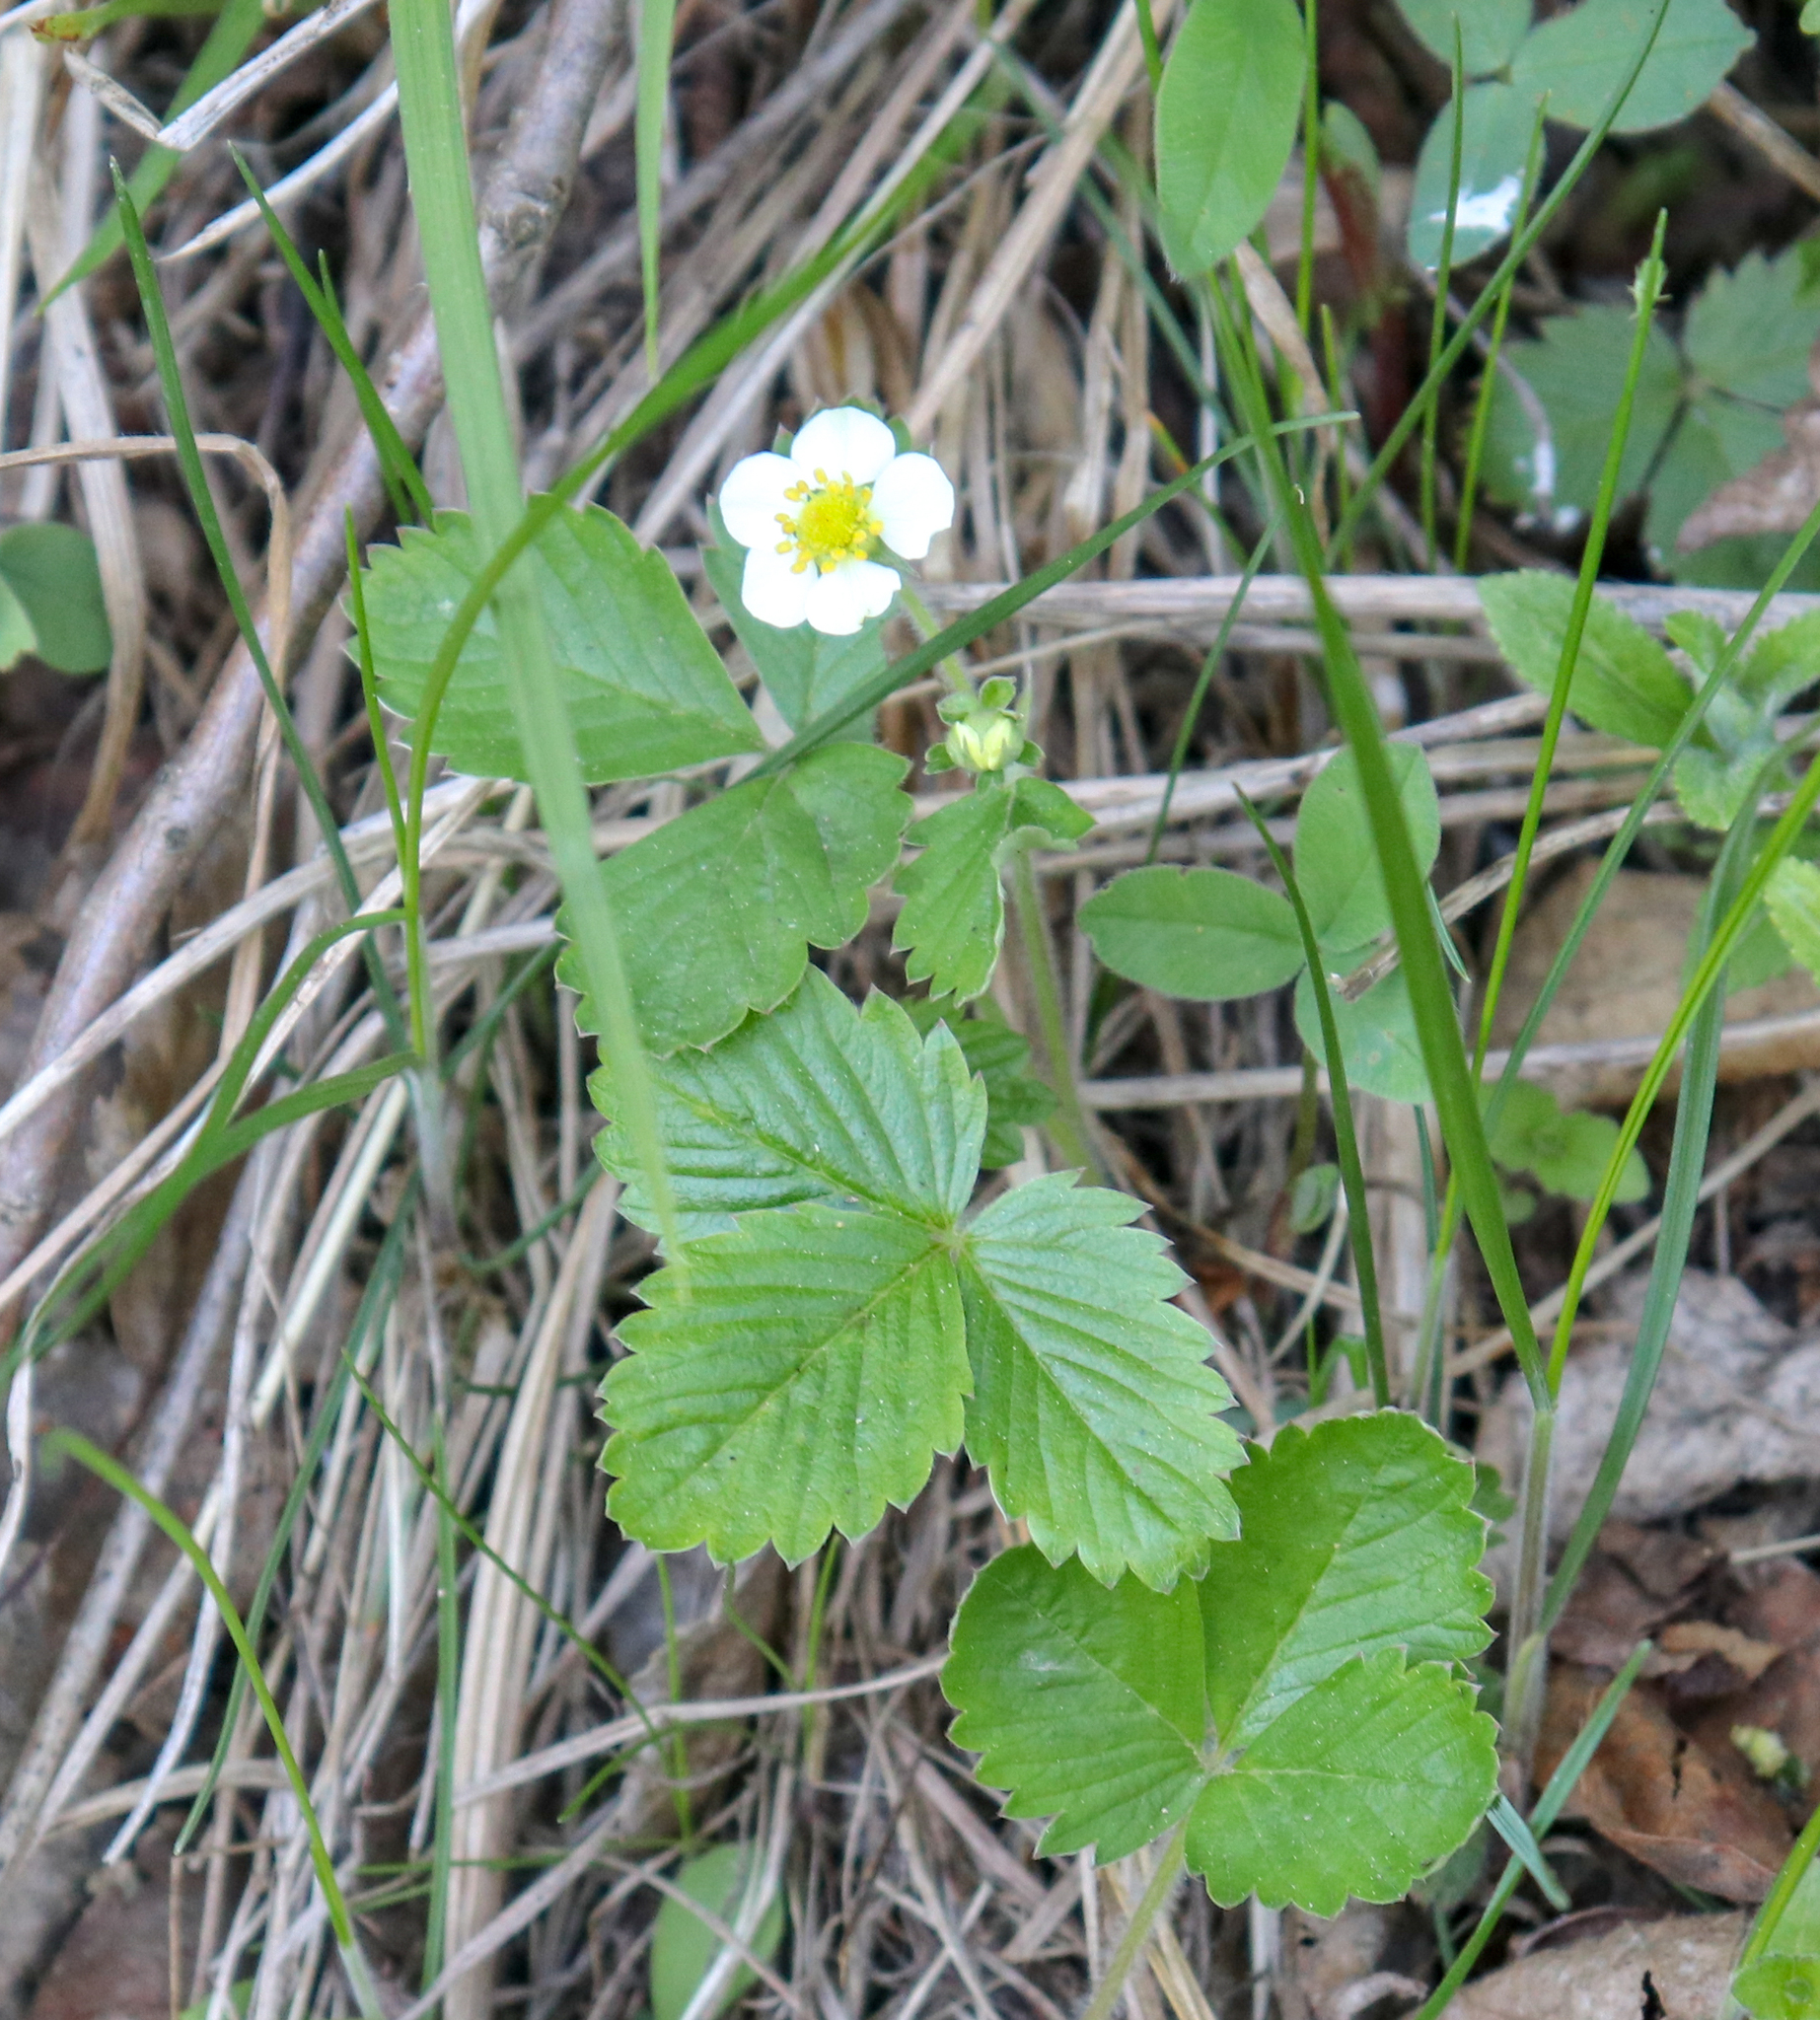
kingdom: Plantae
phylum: Tracheophyta
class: Magnoliopsida
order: Rosales
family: Rosaceae
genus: Fragaria
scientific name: Fragaria vesca
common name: Wild strawberry
